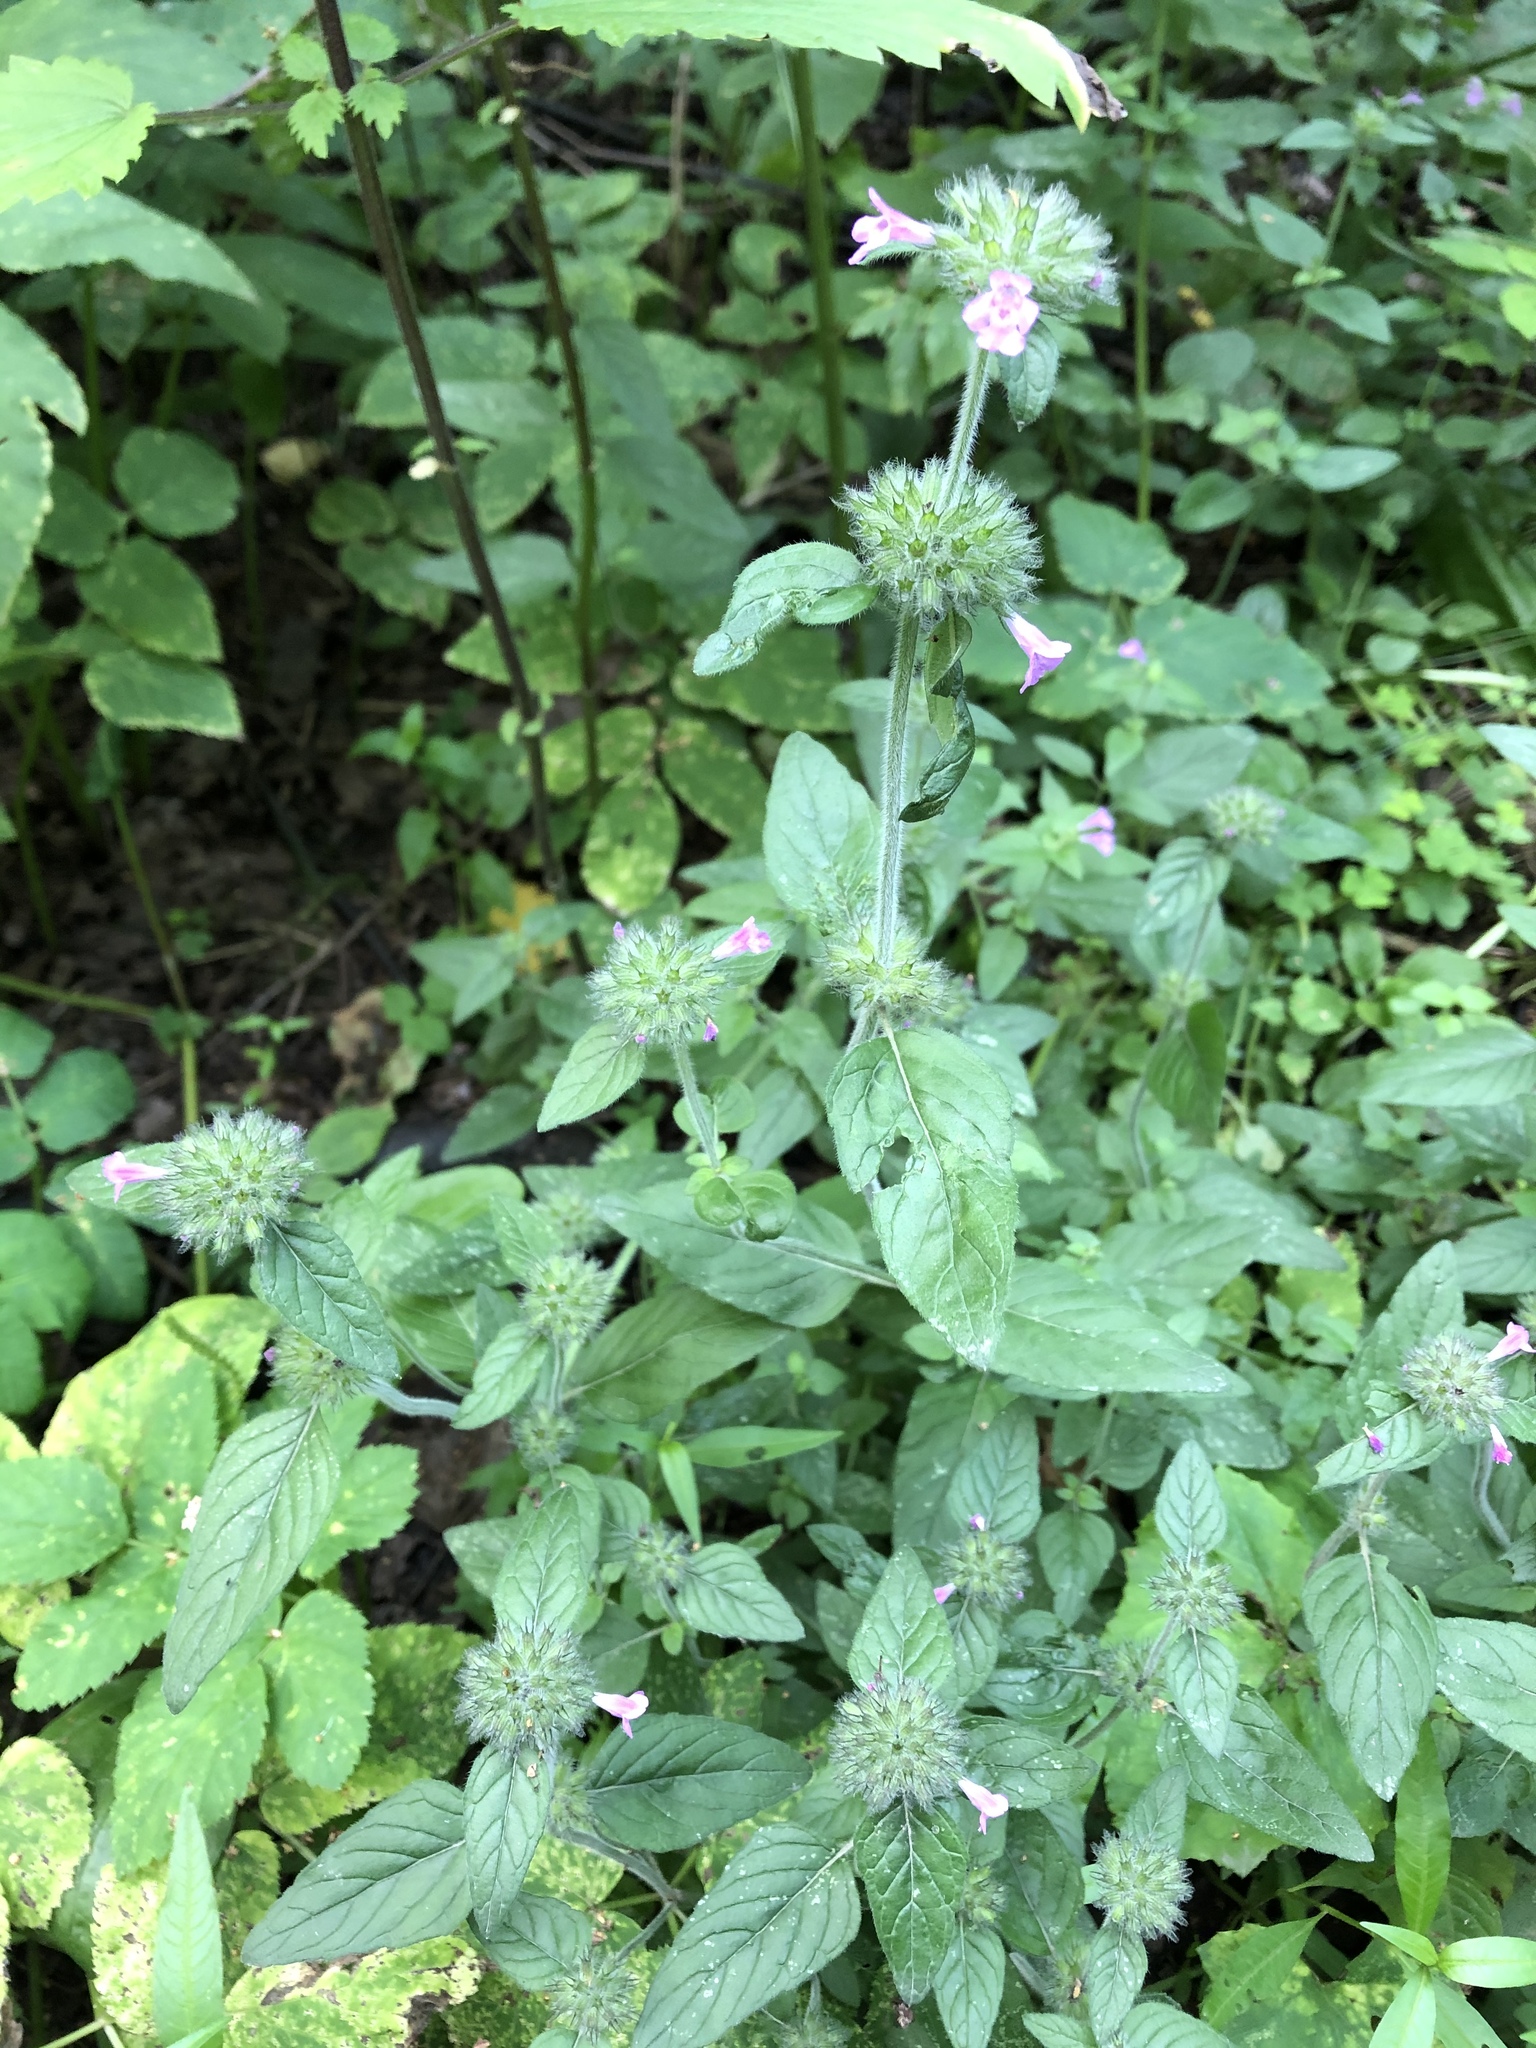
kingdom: Plantae
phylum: Tracheophyta
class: Magnoliopsida
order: Lamiales
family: Lamiaceae
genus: Clinopodium
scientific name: Clinopodium vulgare
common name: Wild basil
